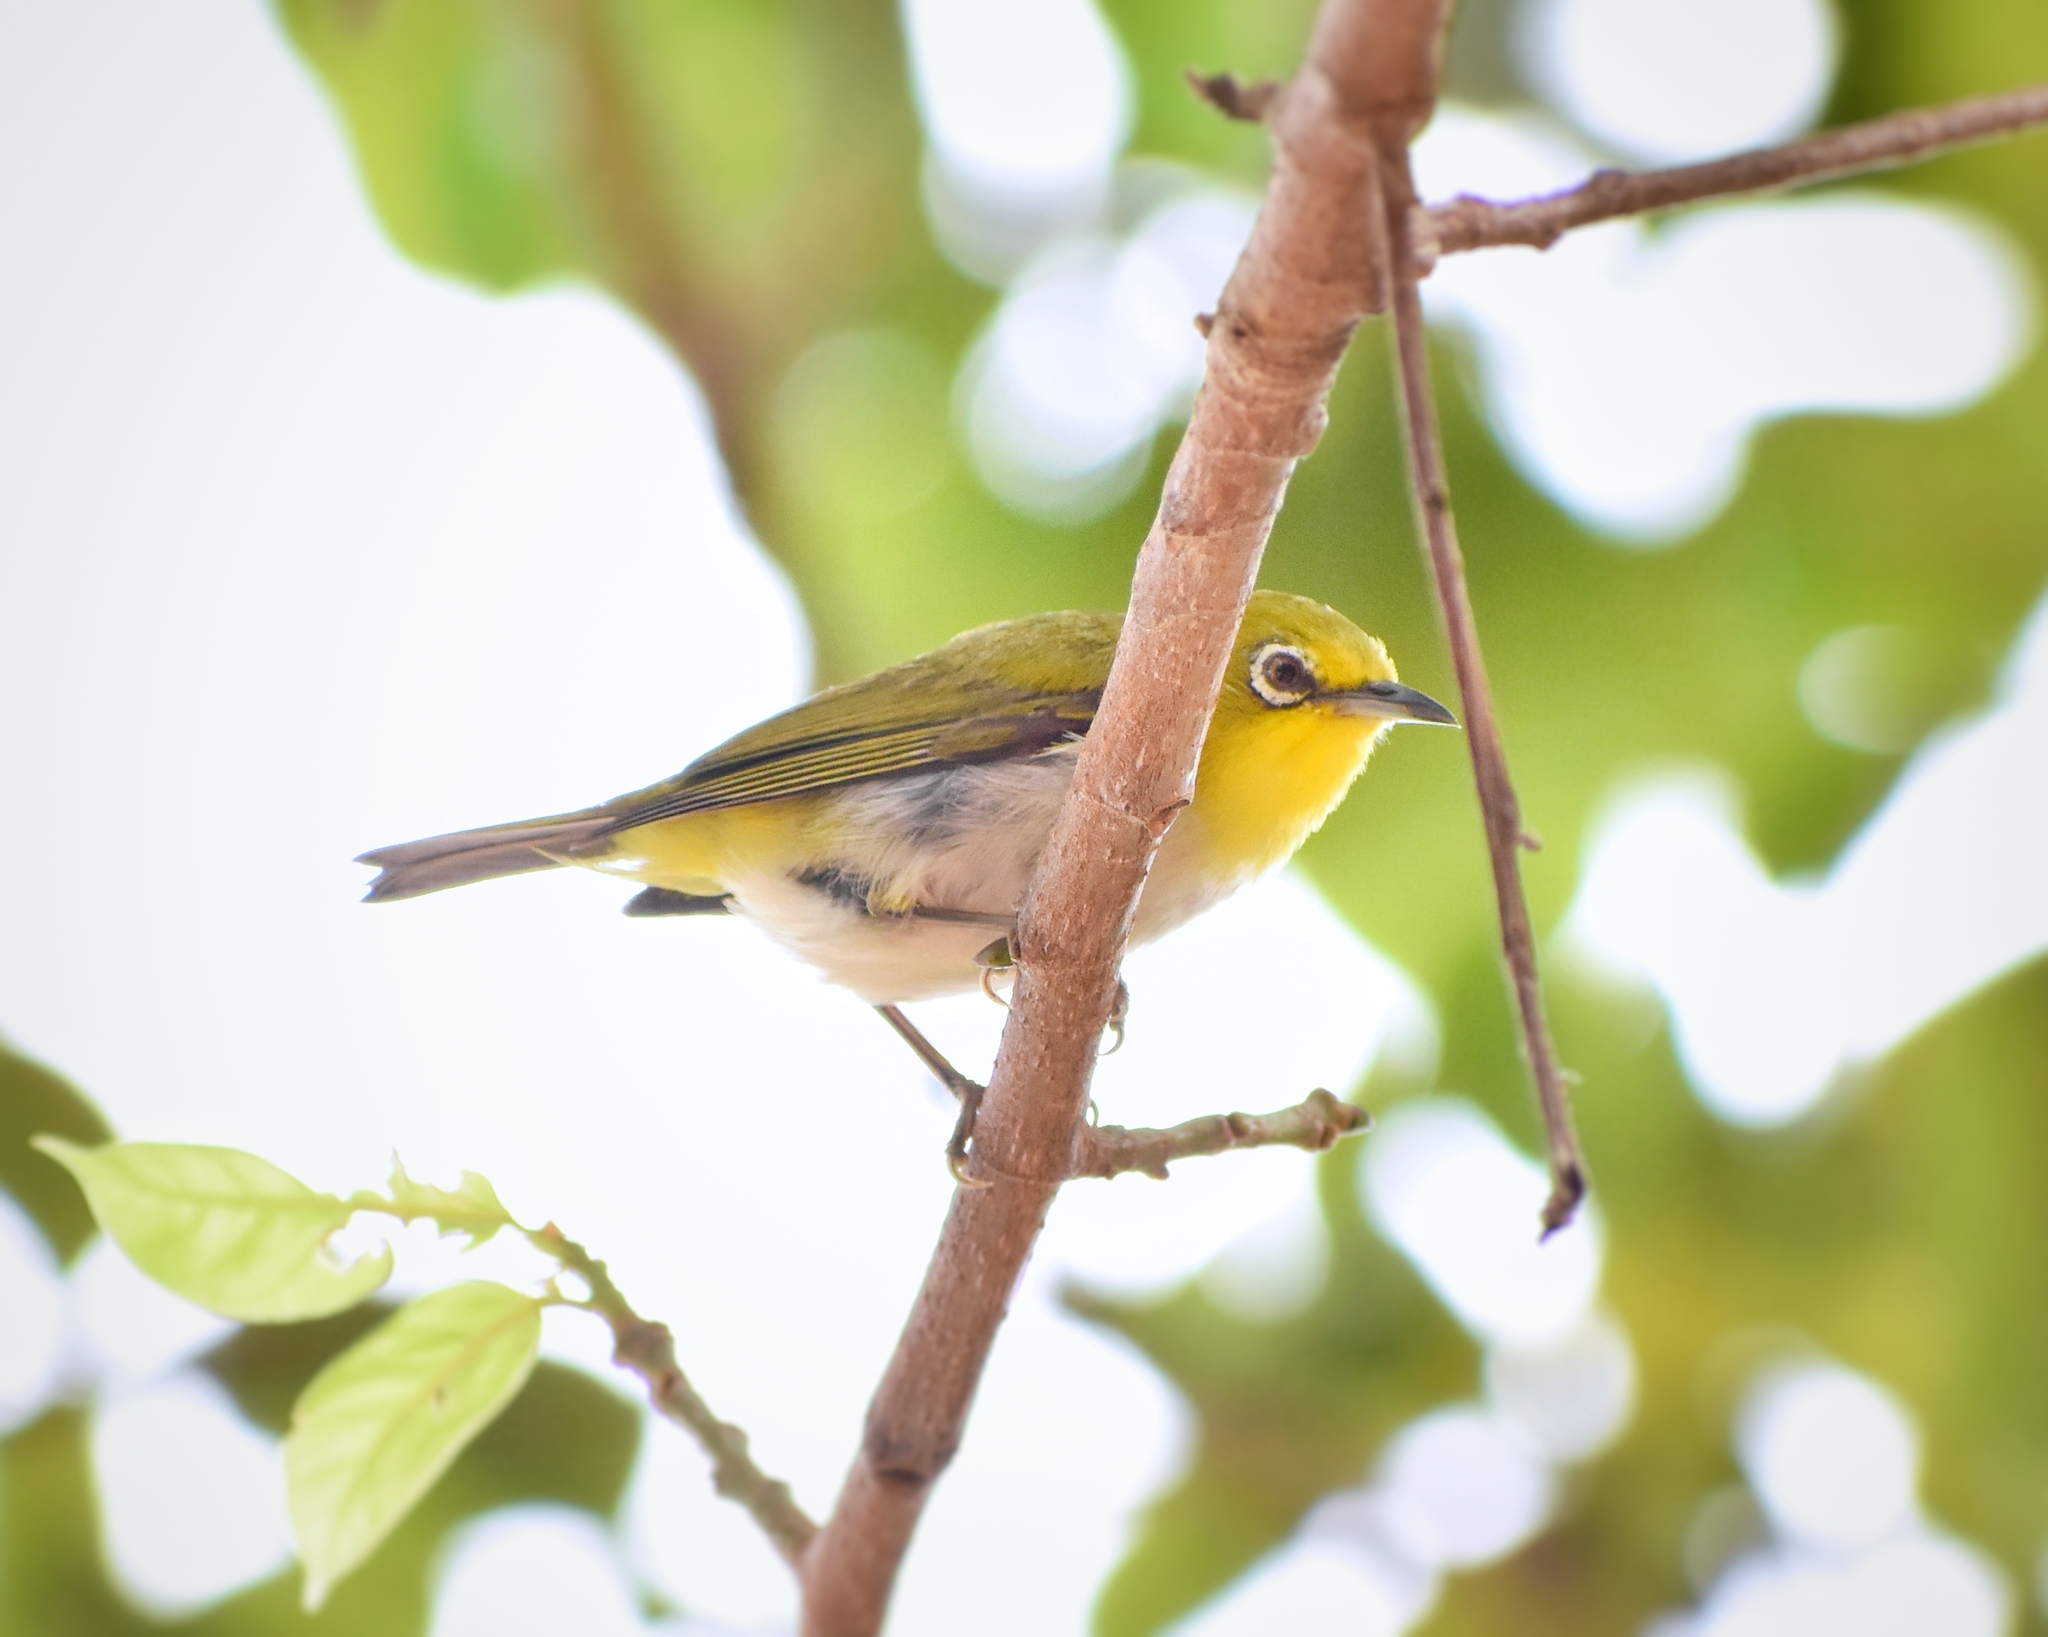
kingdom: Animalia
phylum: Chordata
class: Aves
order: Passeriformes
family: Zosteropidae
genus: Zosterops
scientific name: Zosterops simplex
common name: Swinhoe's white-eye
